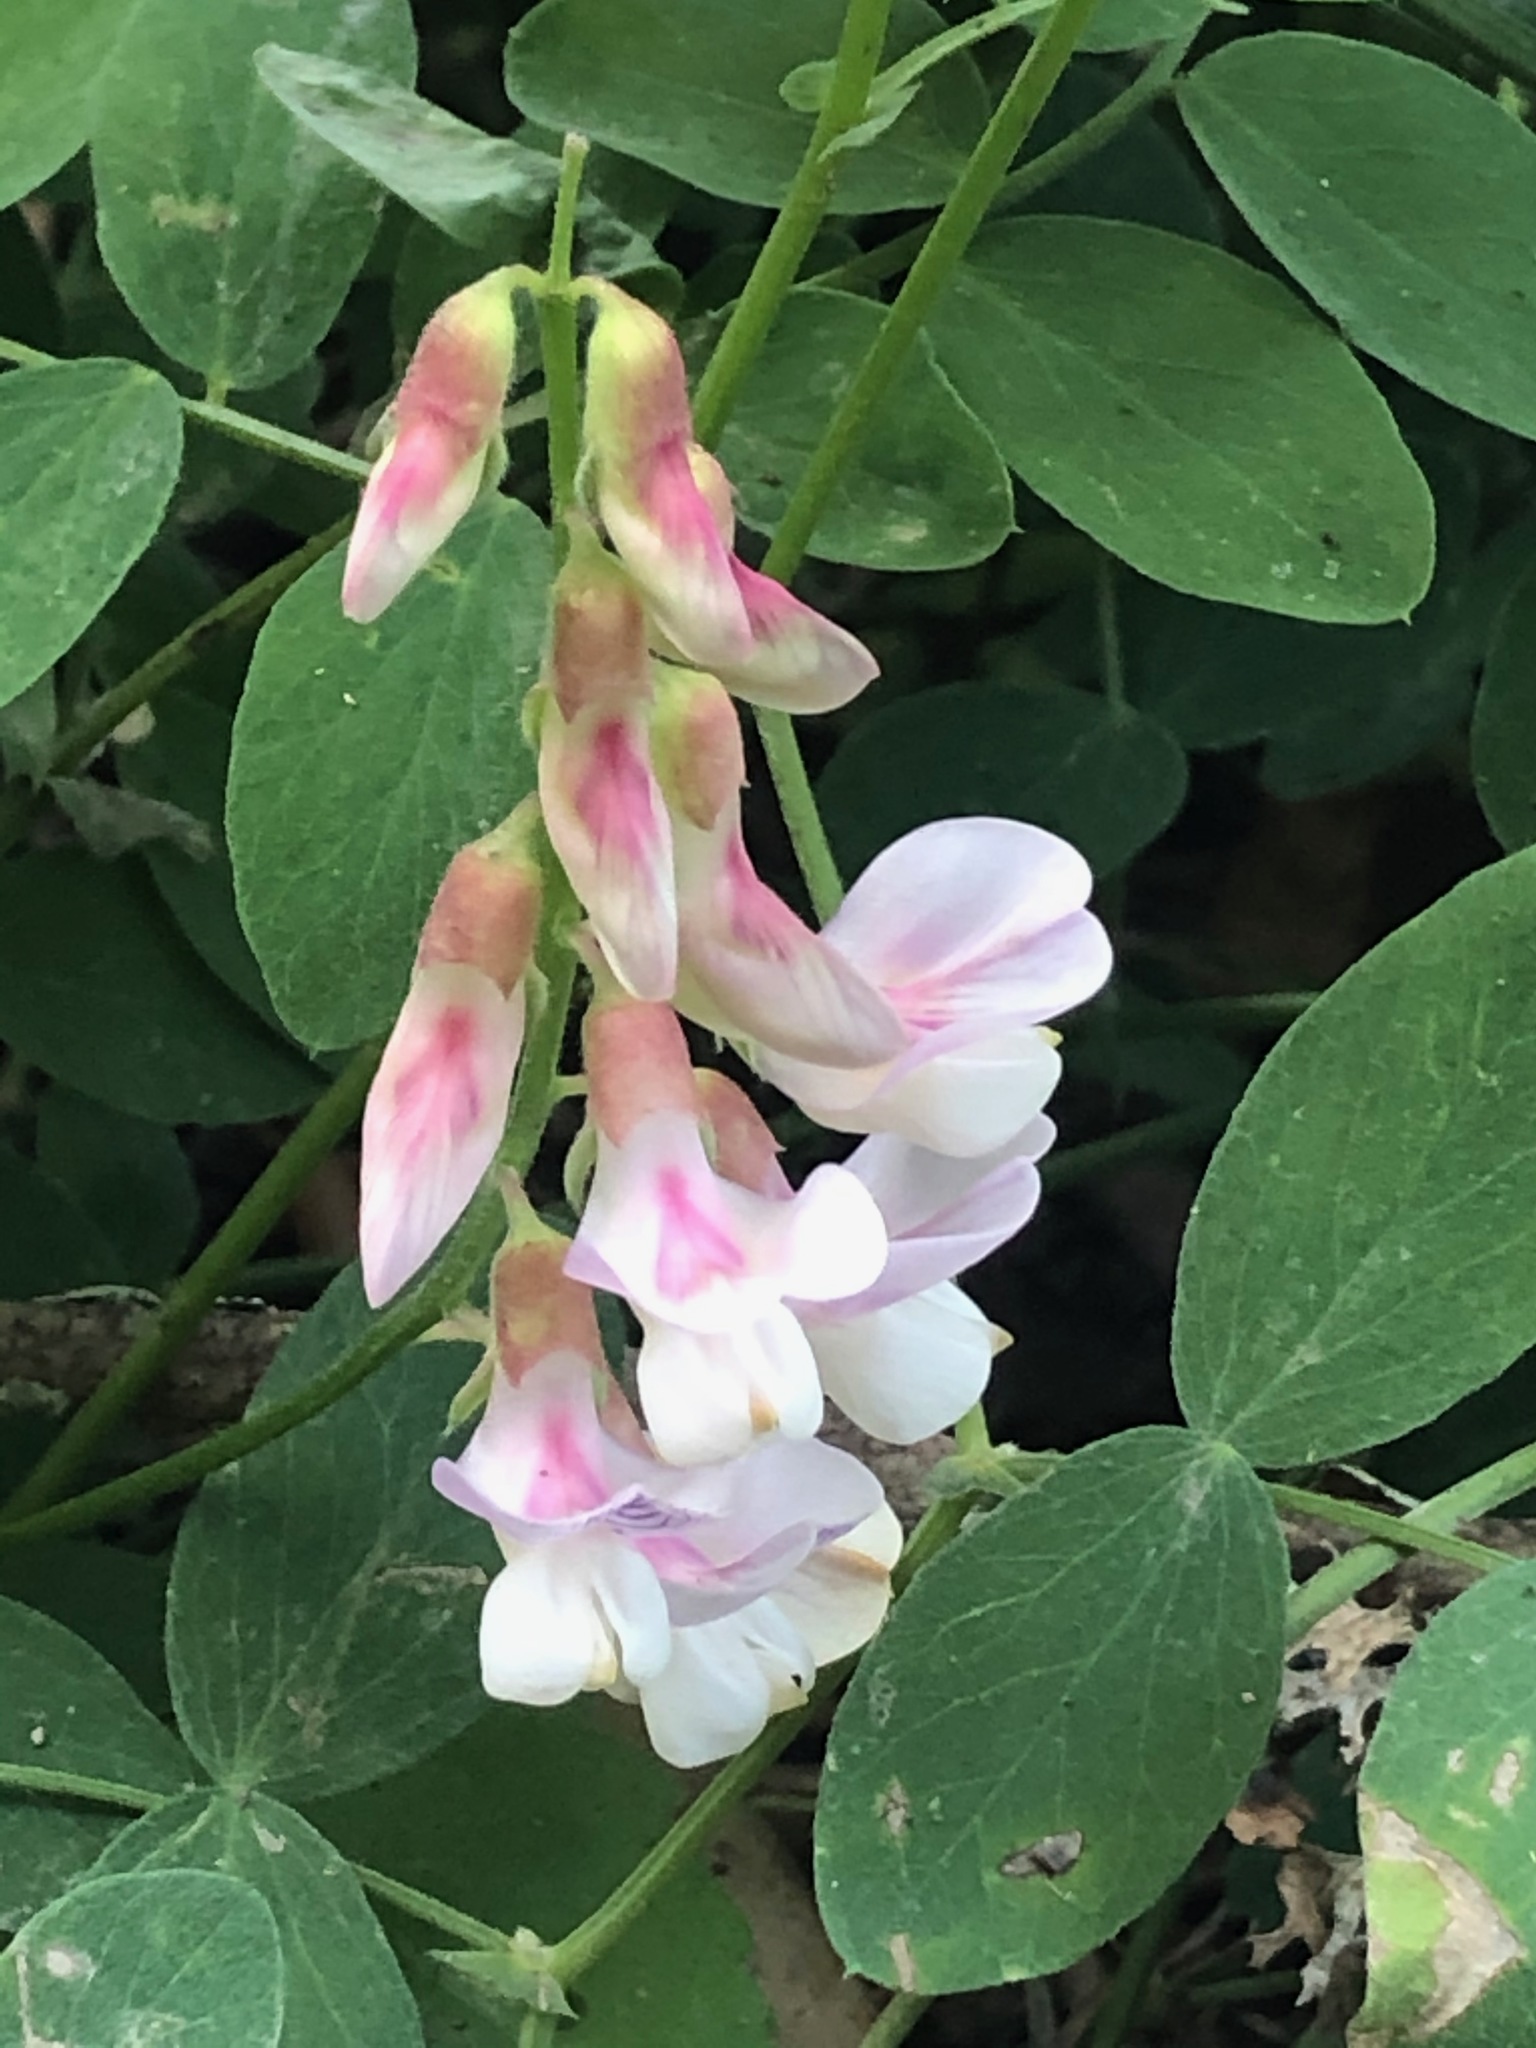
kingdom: Plantae
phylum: Tracheophyta
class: Magnoliopsida
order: Fabales
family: Fabaceae
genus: Lathyrus
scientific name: Lathyrus vestitus
